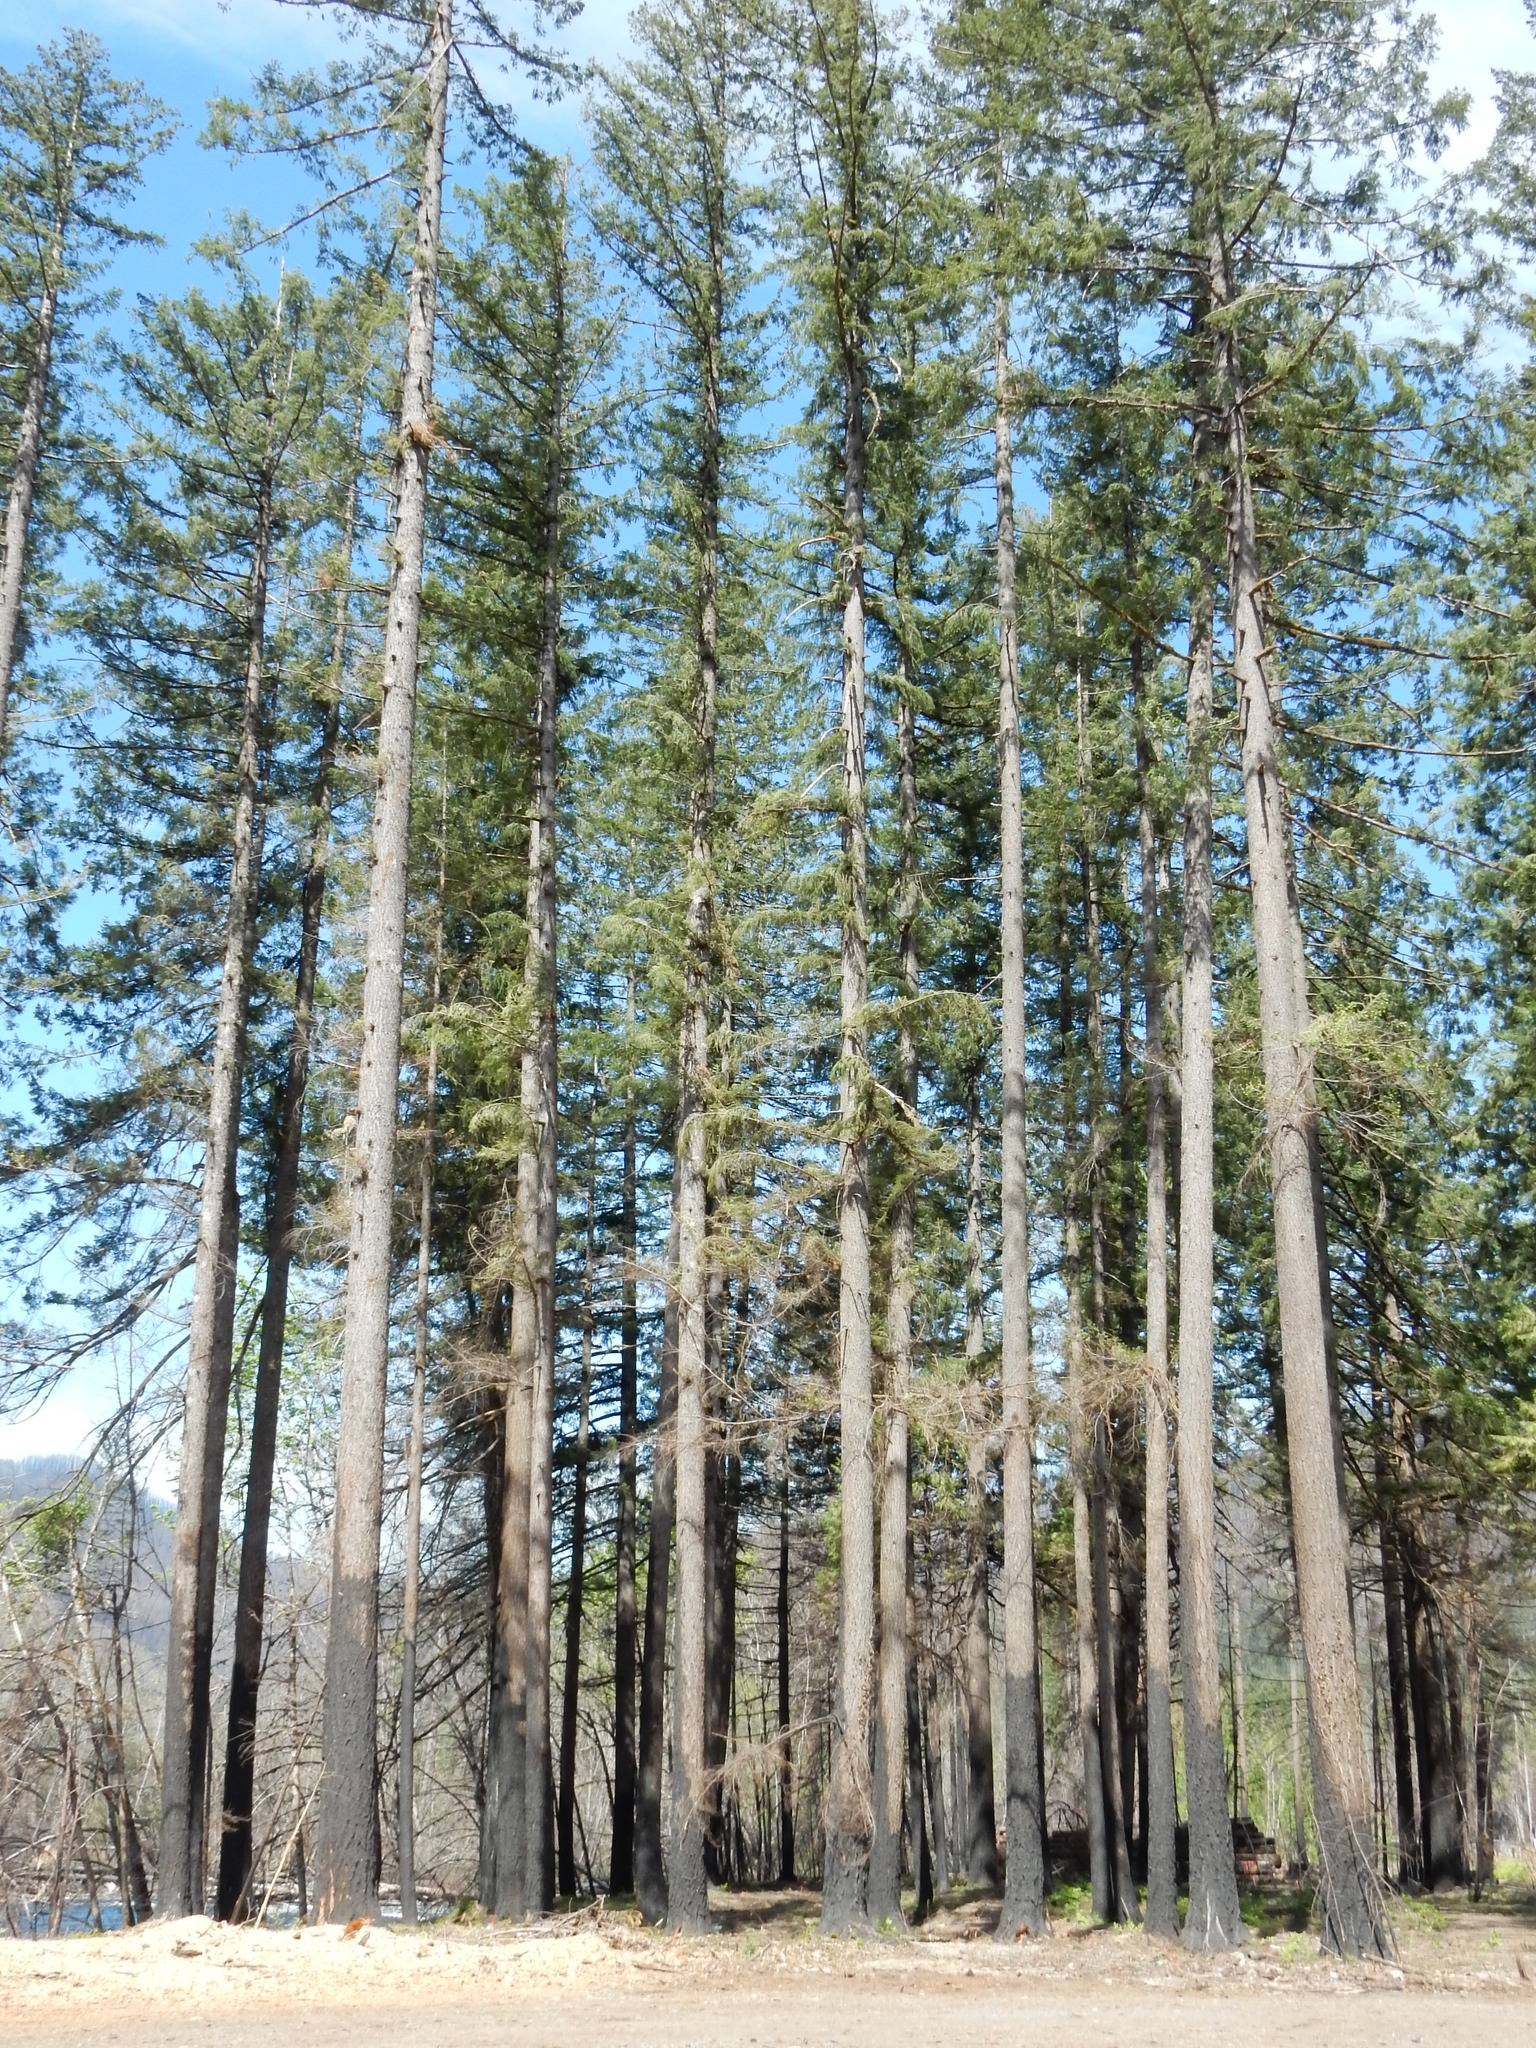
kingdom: Plantae
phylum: Tracheophyta
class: Pinopsida
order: Pinales
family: Pinaceae
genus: Pseudotsuga
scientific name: Pseudotsuga menziesii
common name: Douglas fir
